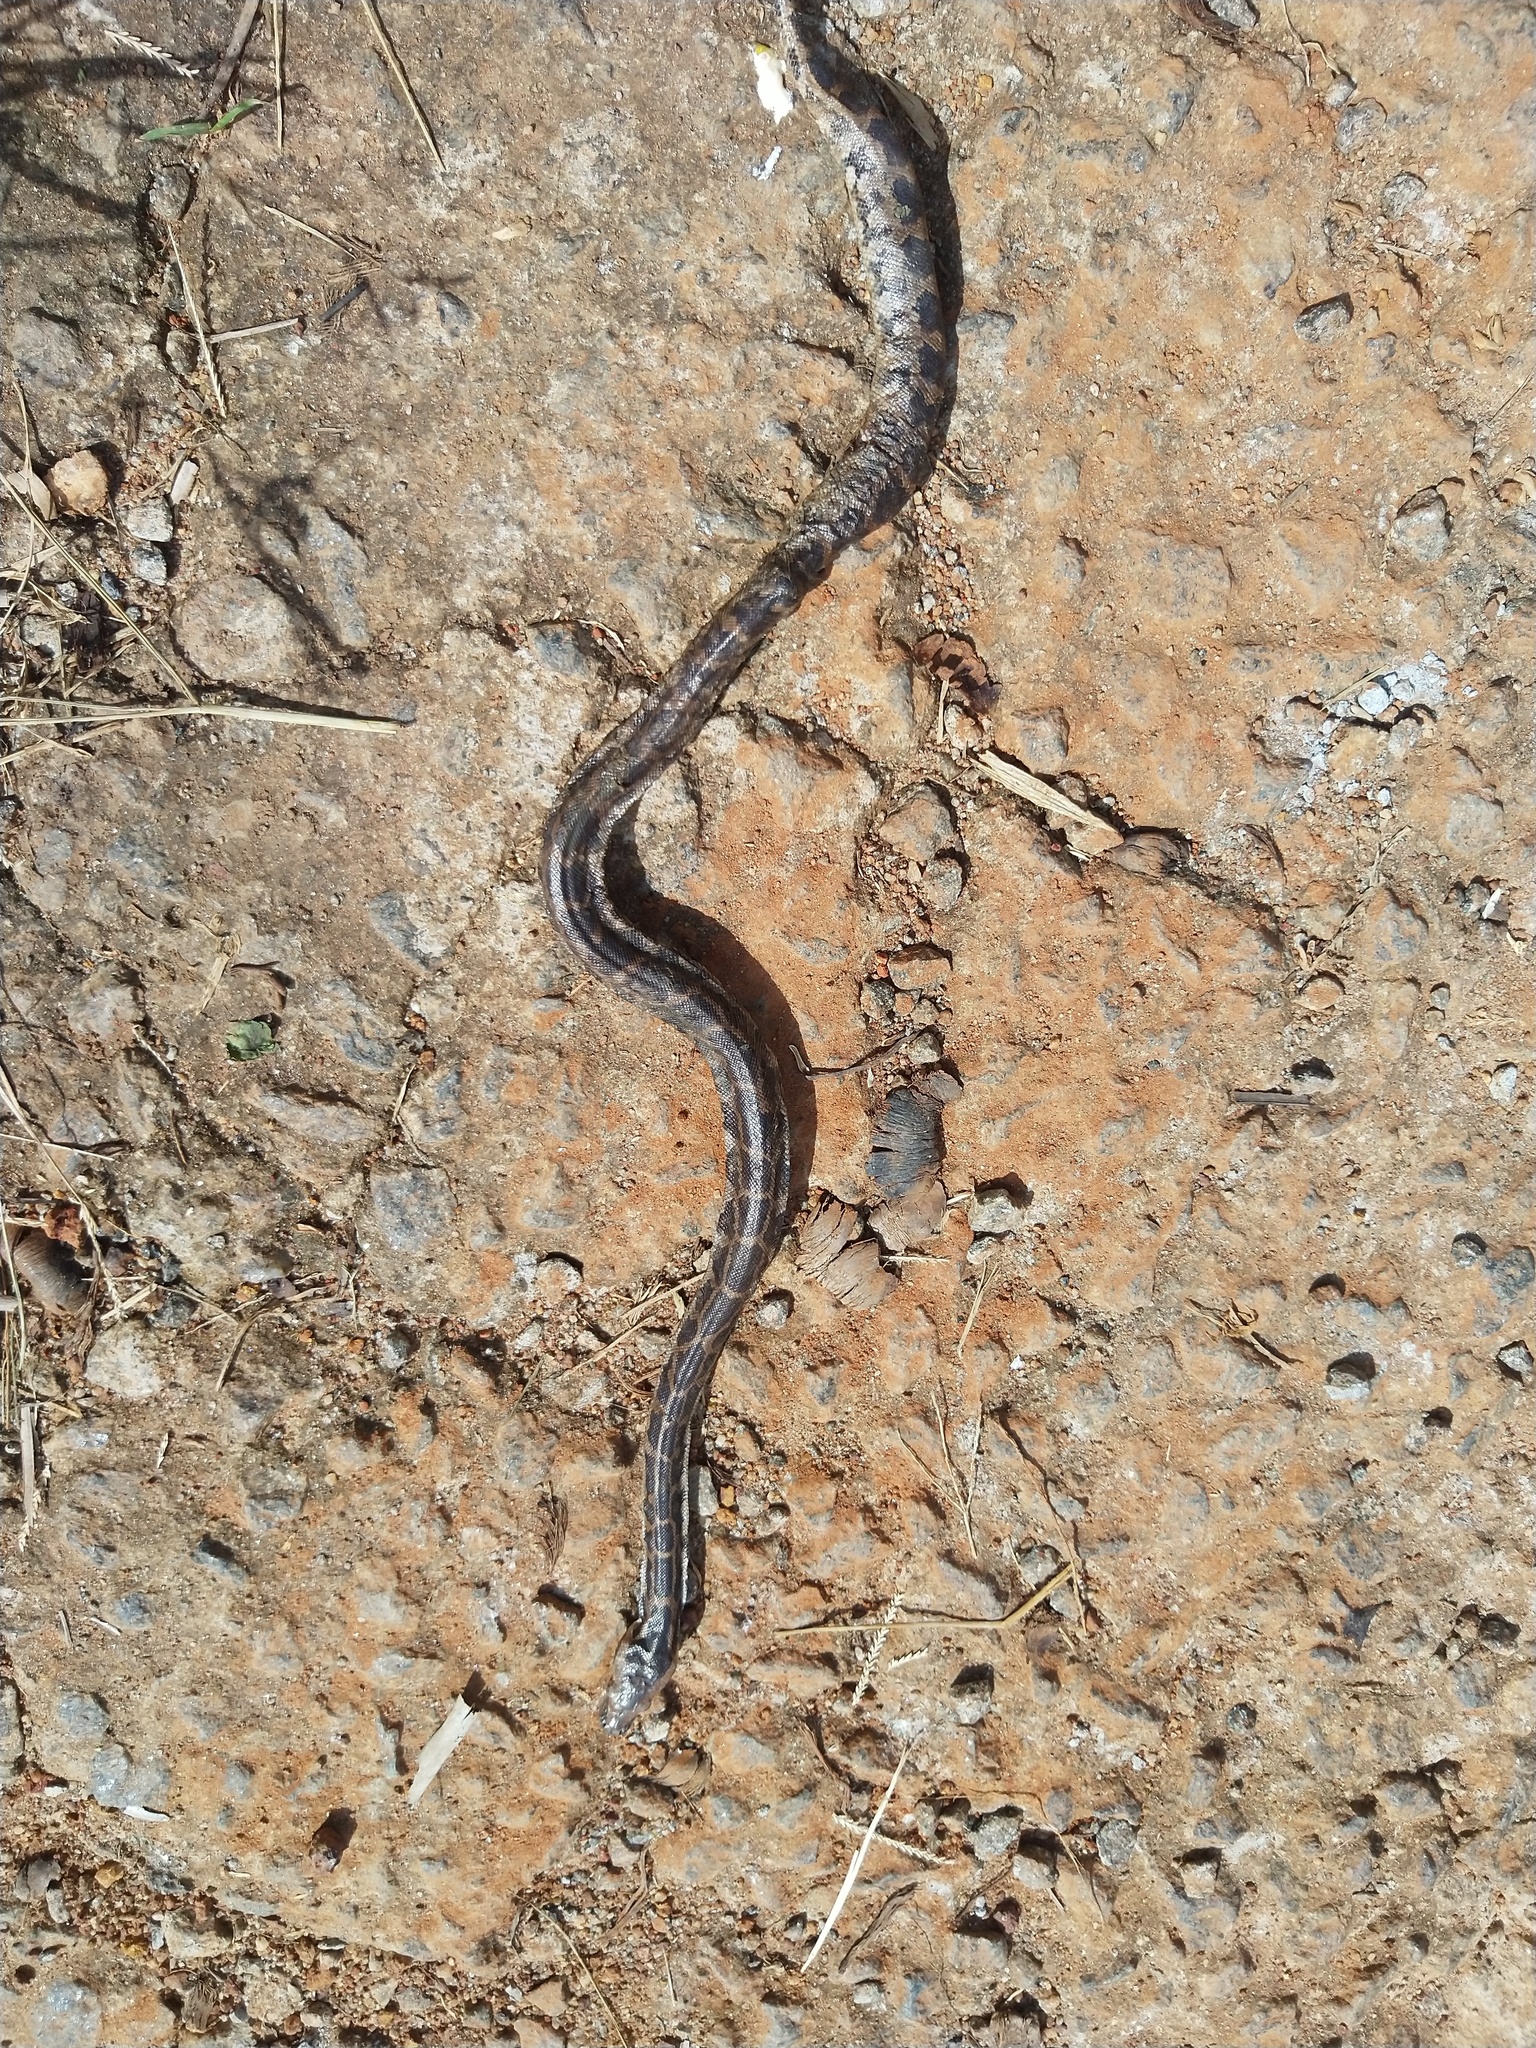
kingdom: Animalia
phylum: Chordata
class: Squamata
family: Pythonidae
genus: Python
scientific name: Python molurus
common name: Indian rock python
